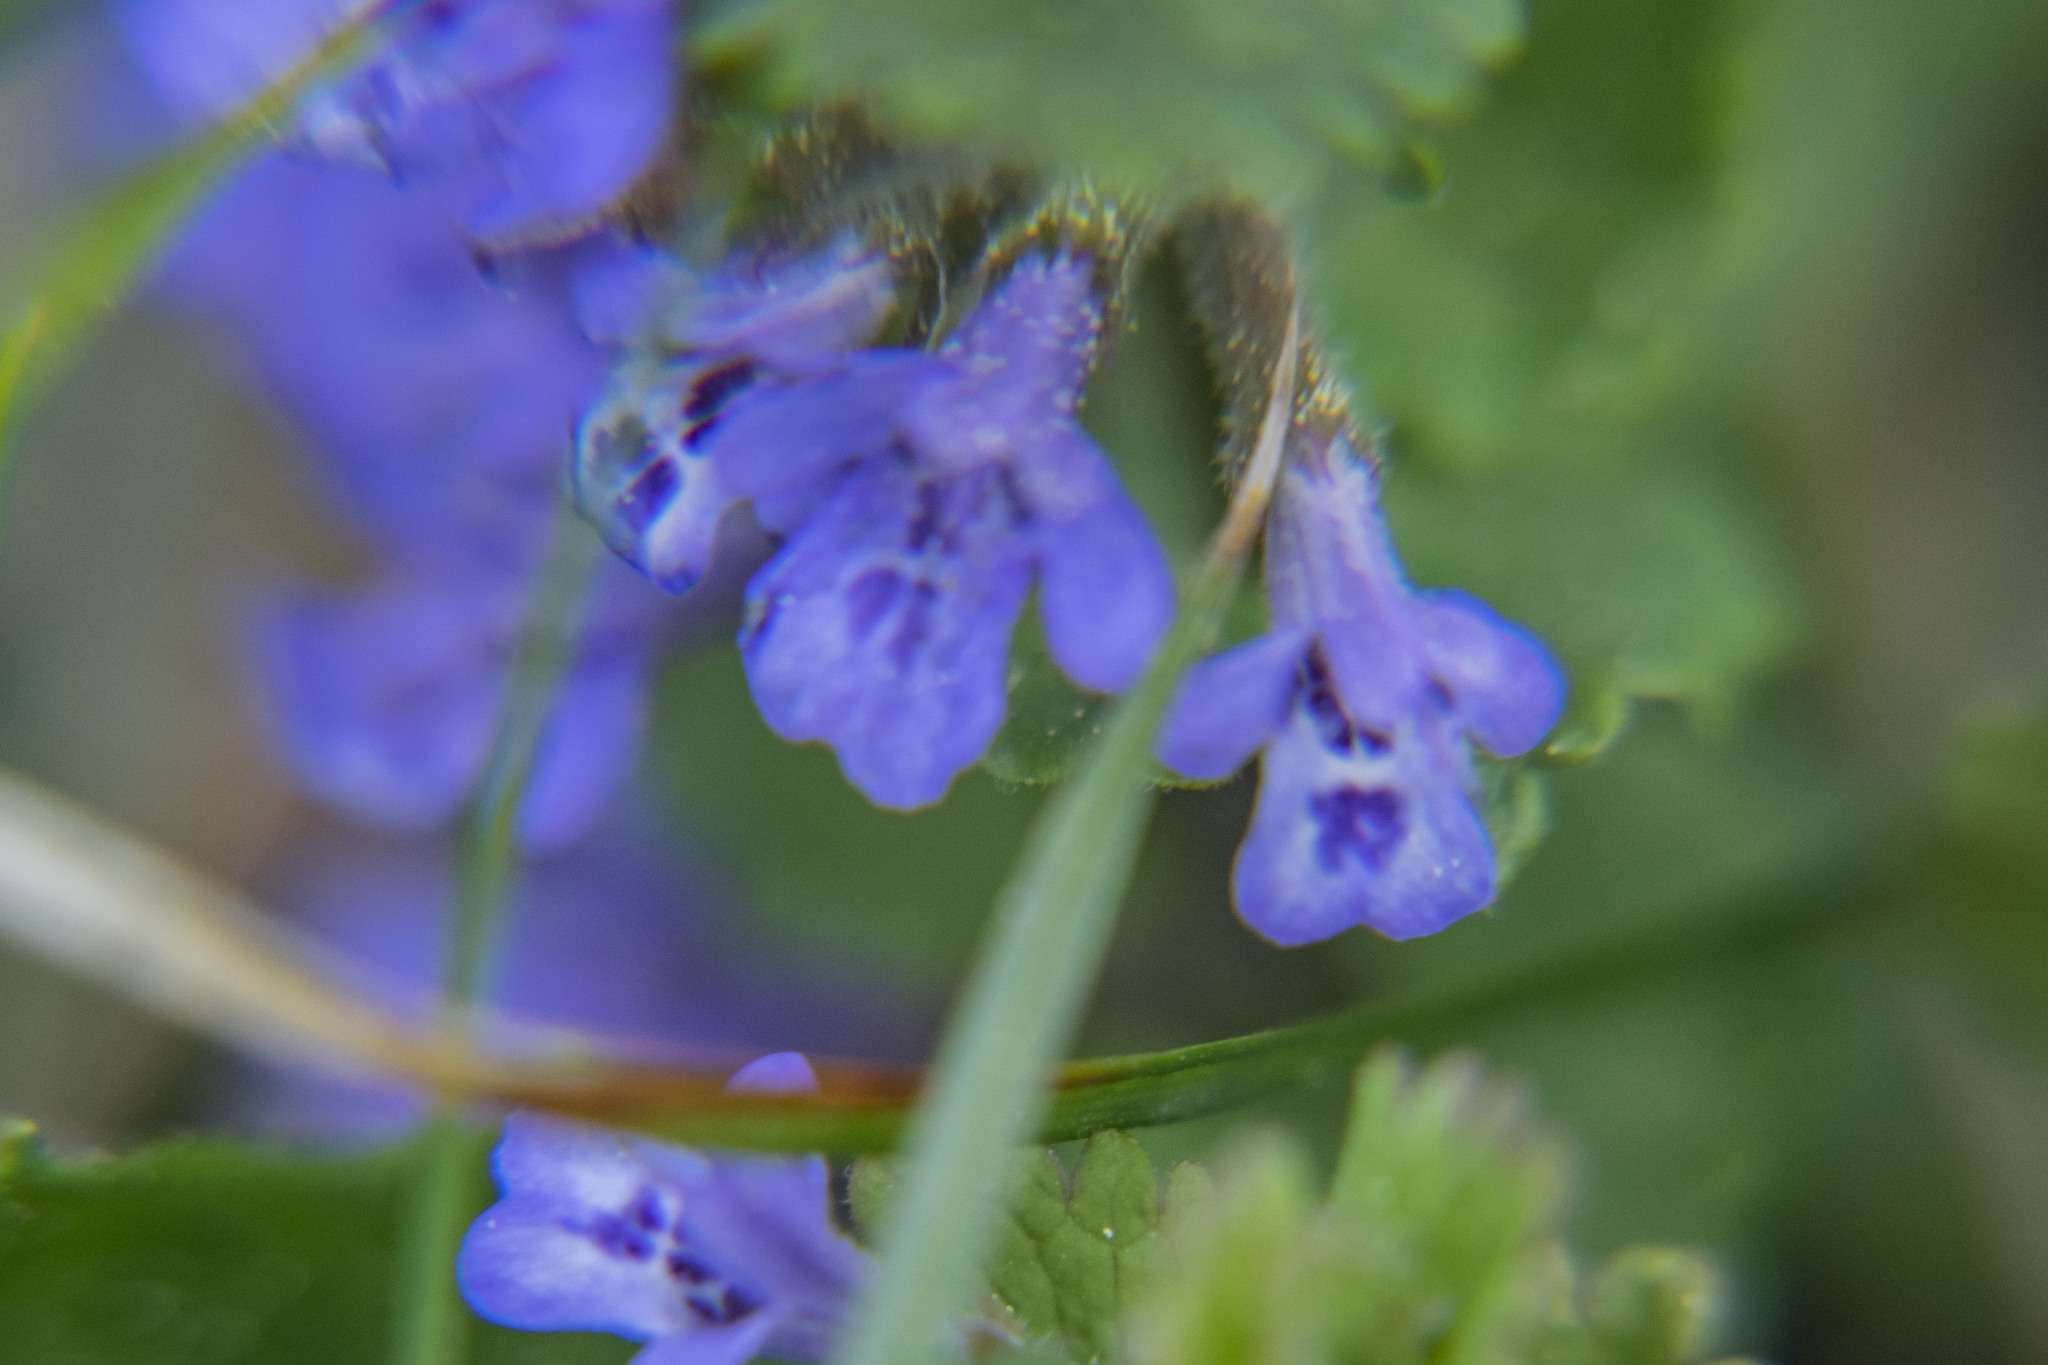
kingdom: Plantae
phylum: Tracheophyta
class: Magnoliopsida
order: Lamiales
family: Lamiaceae
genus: Glechoma
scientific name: Glechoma hederacea
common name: Ground ivy
